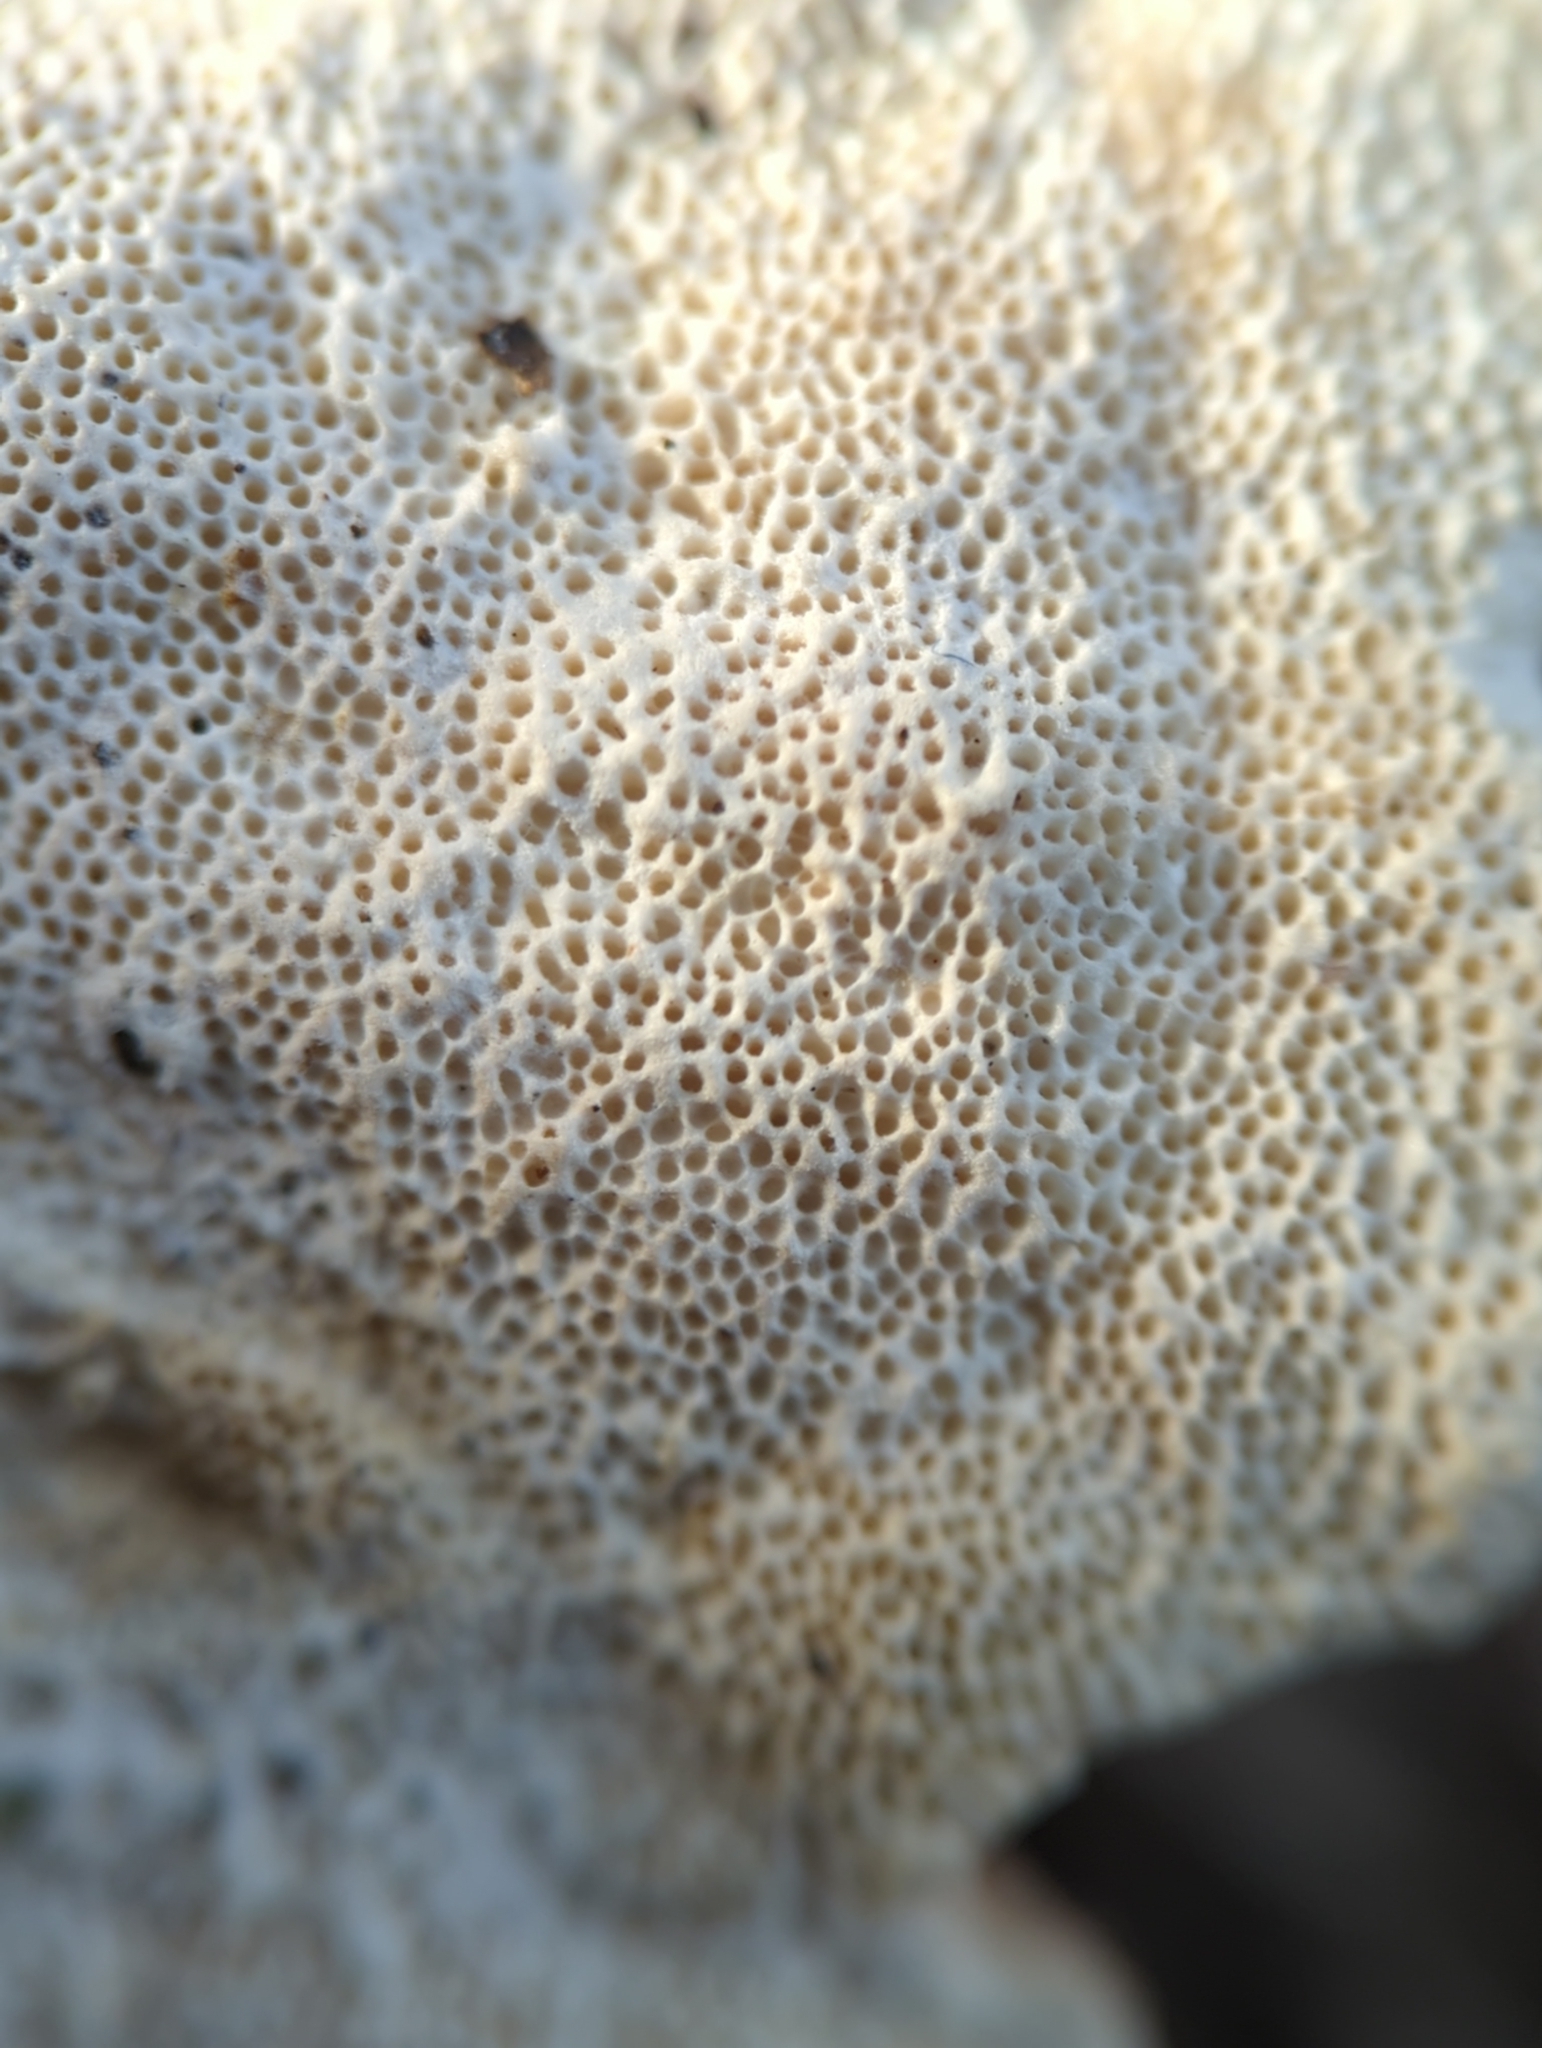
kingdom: Fungi
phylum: Basidiomycota
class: Agaricomycetes
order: Polyporales
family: Polyporaceae
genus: Trametes
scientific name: Trametes hirsuta
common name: Hairy bracket
